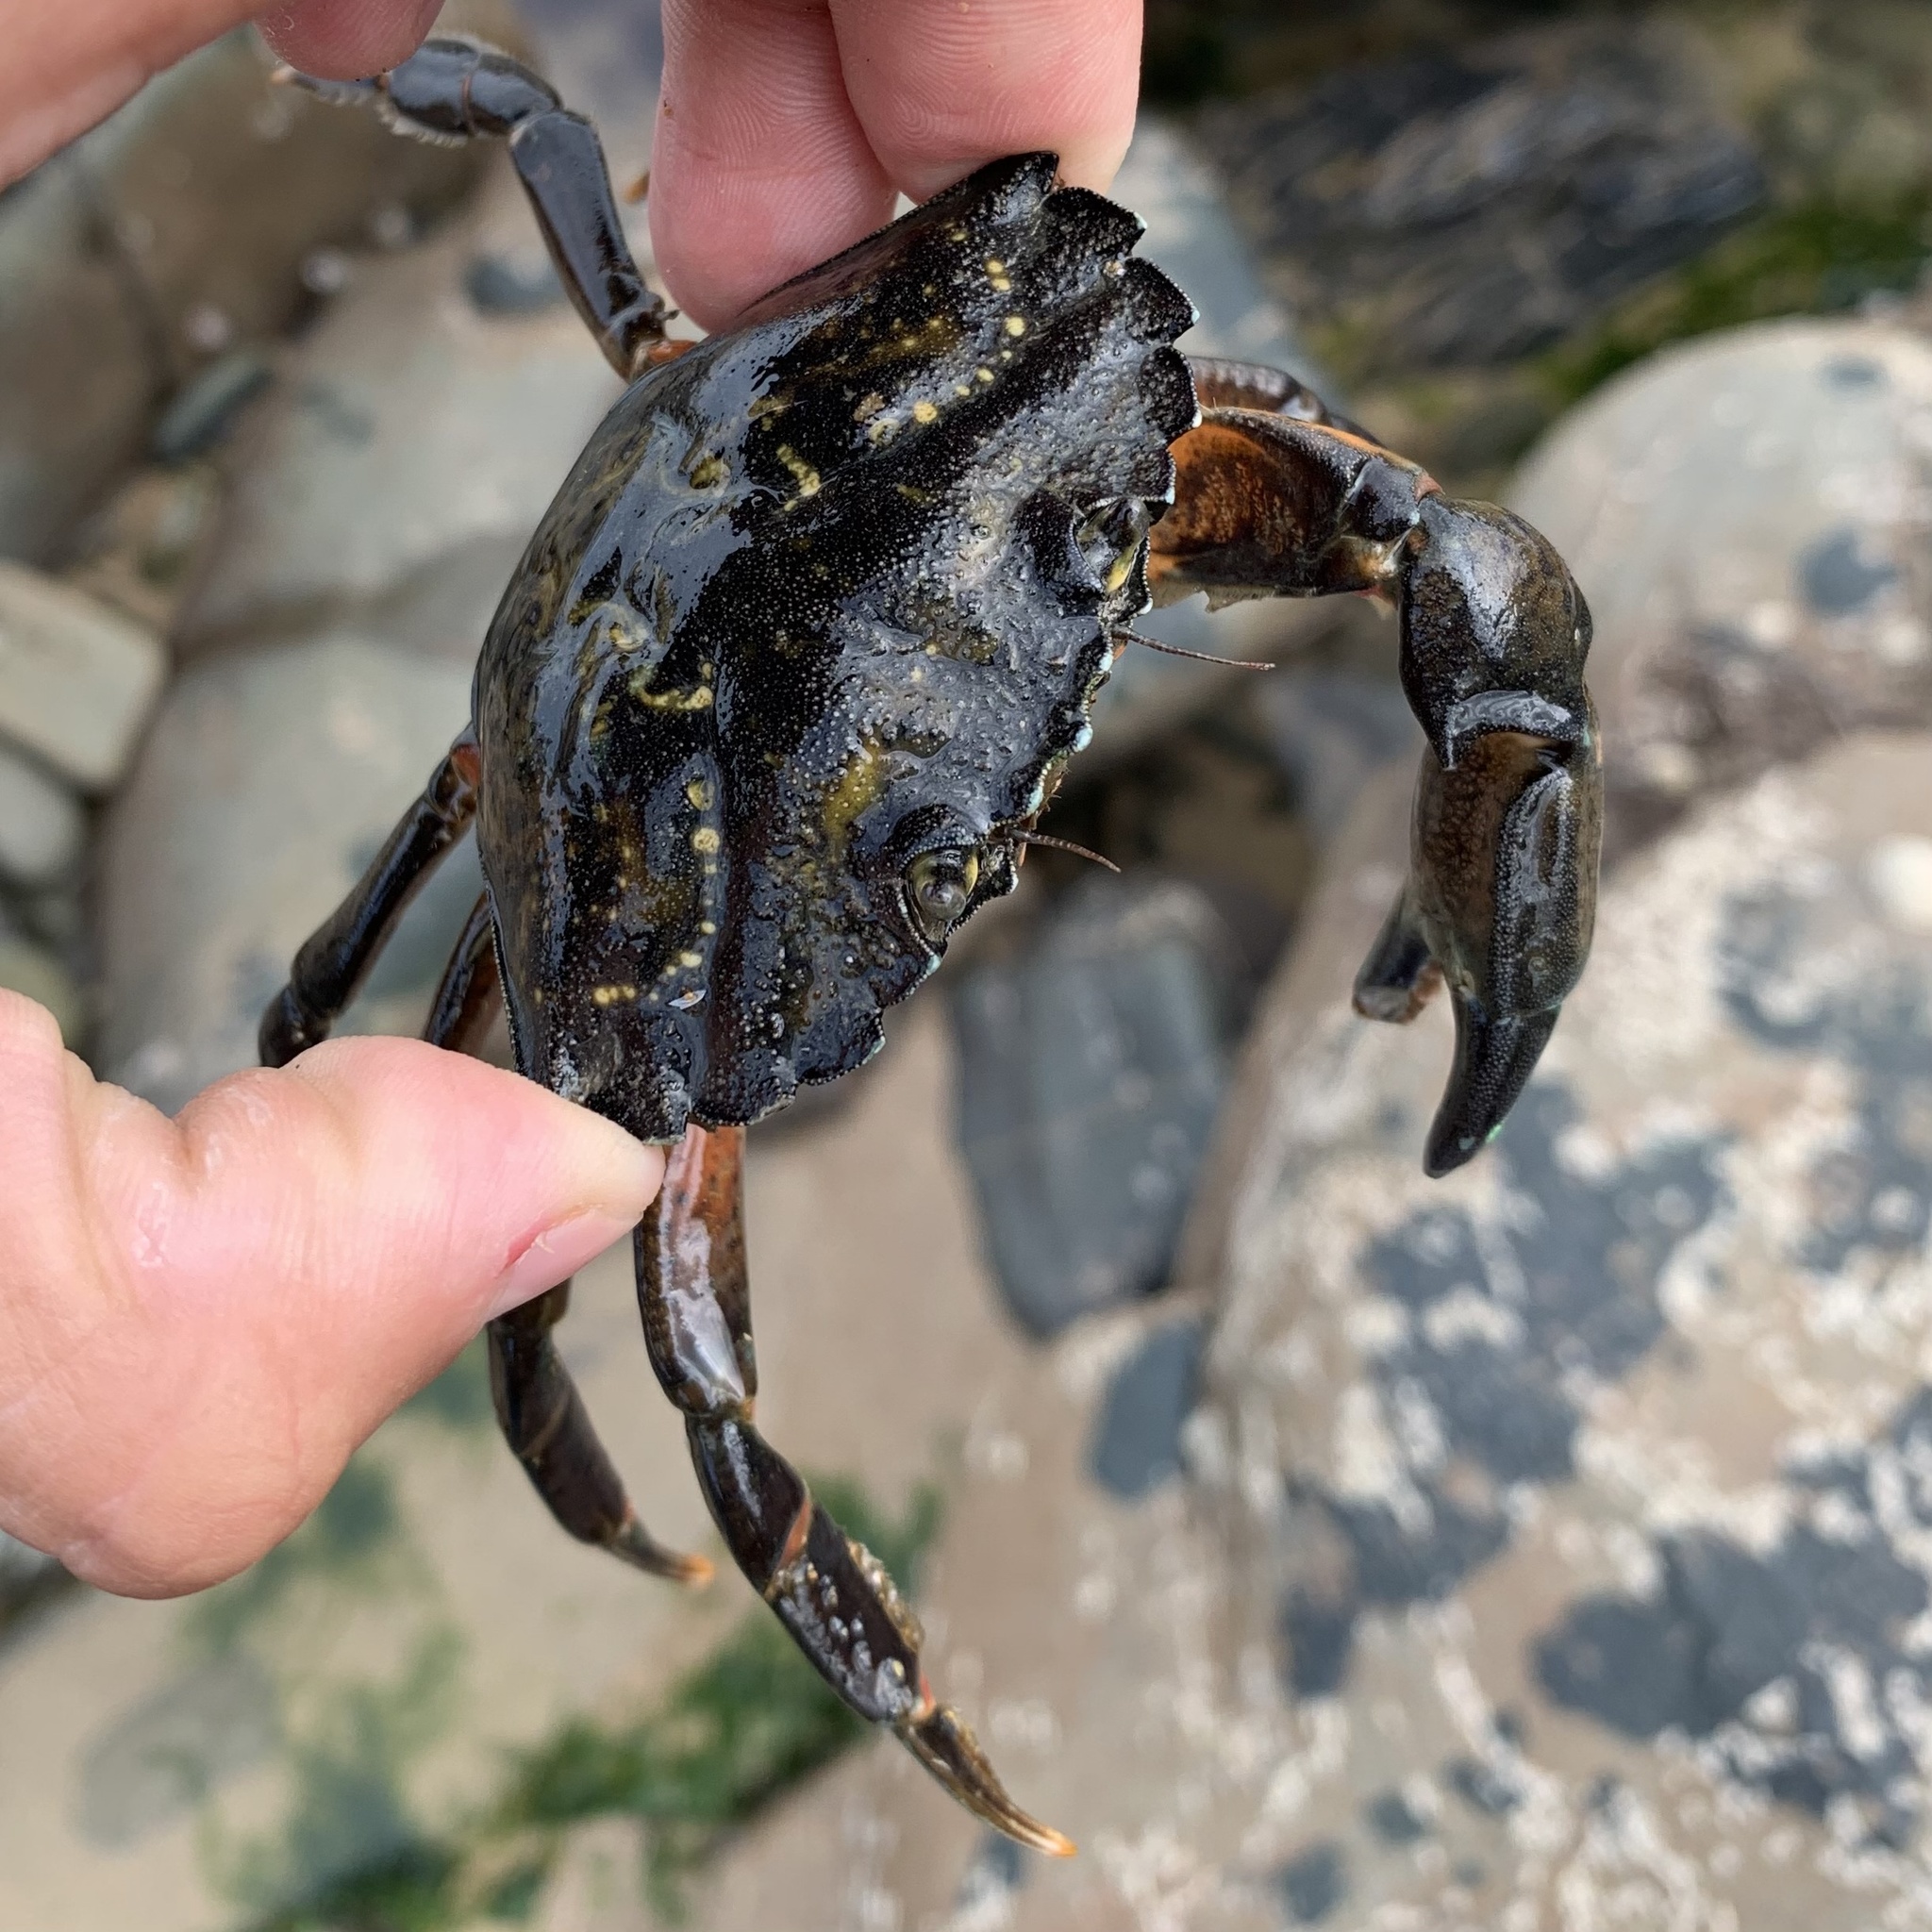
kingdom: Animalia
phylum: Arthropoda
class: Malacostraca
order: Decapoda
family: Carcinidae
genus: Carcinus
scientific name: Carcinus maenas
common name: European green crab
